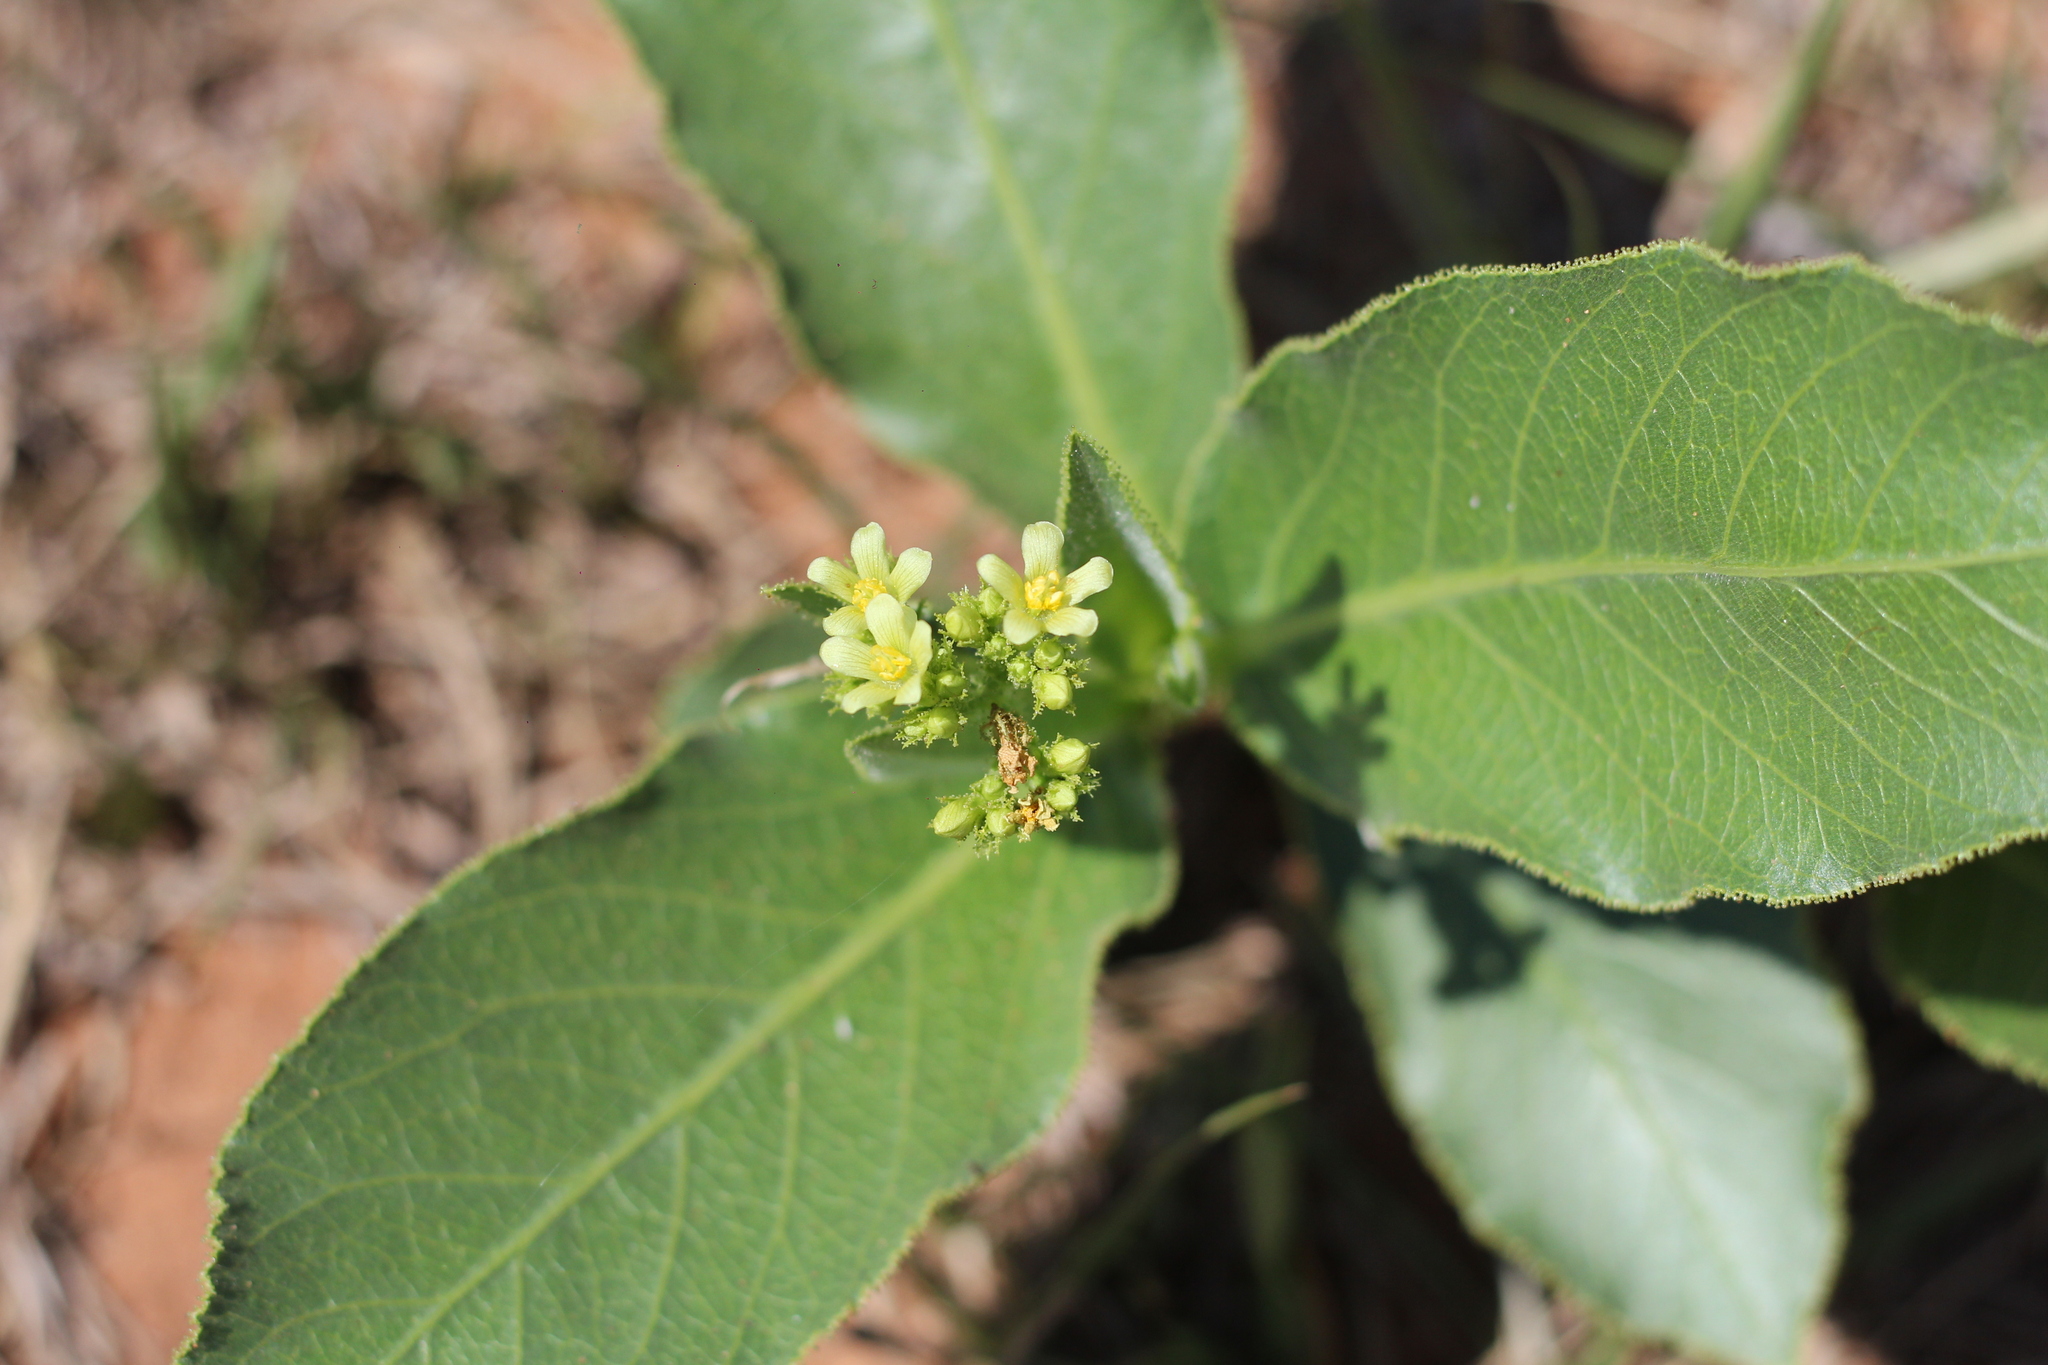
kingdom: Plantae
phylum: Tracheophyta
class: Magnoliopsida
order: Malpighiales
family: Euphorbiaceae
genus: Jatropha
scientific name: Jatropha isabellei
